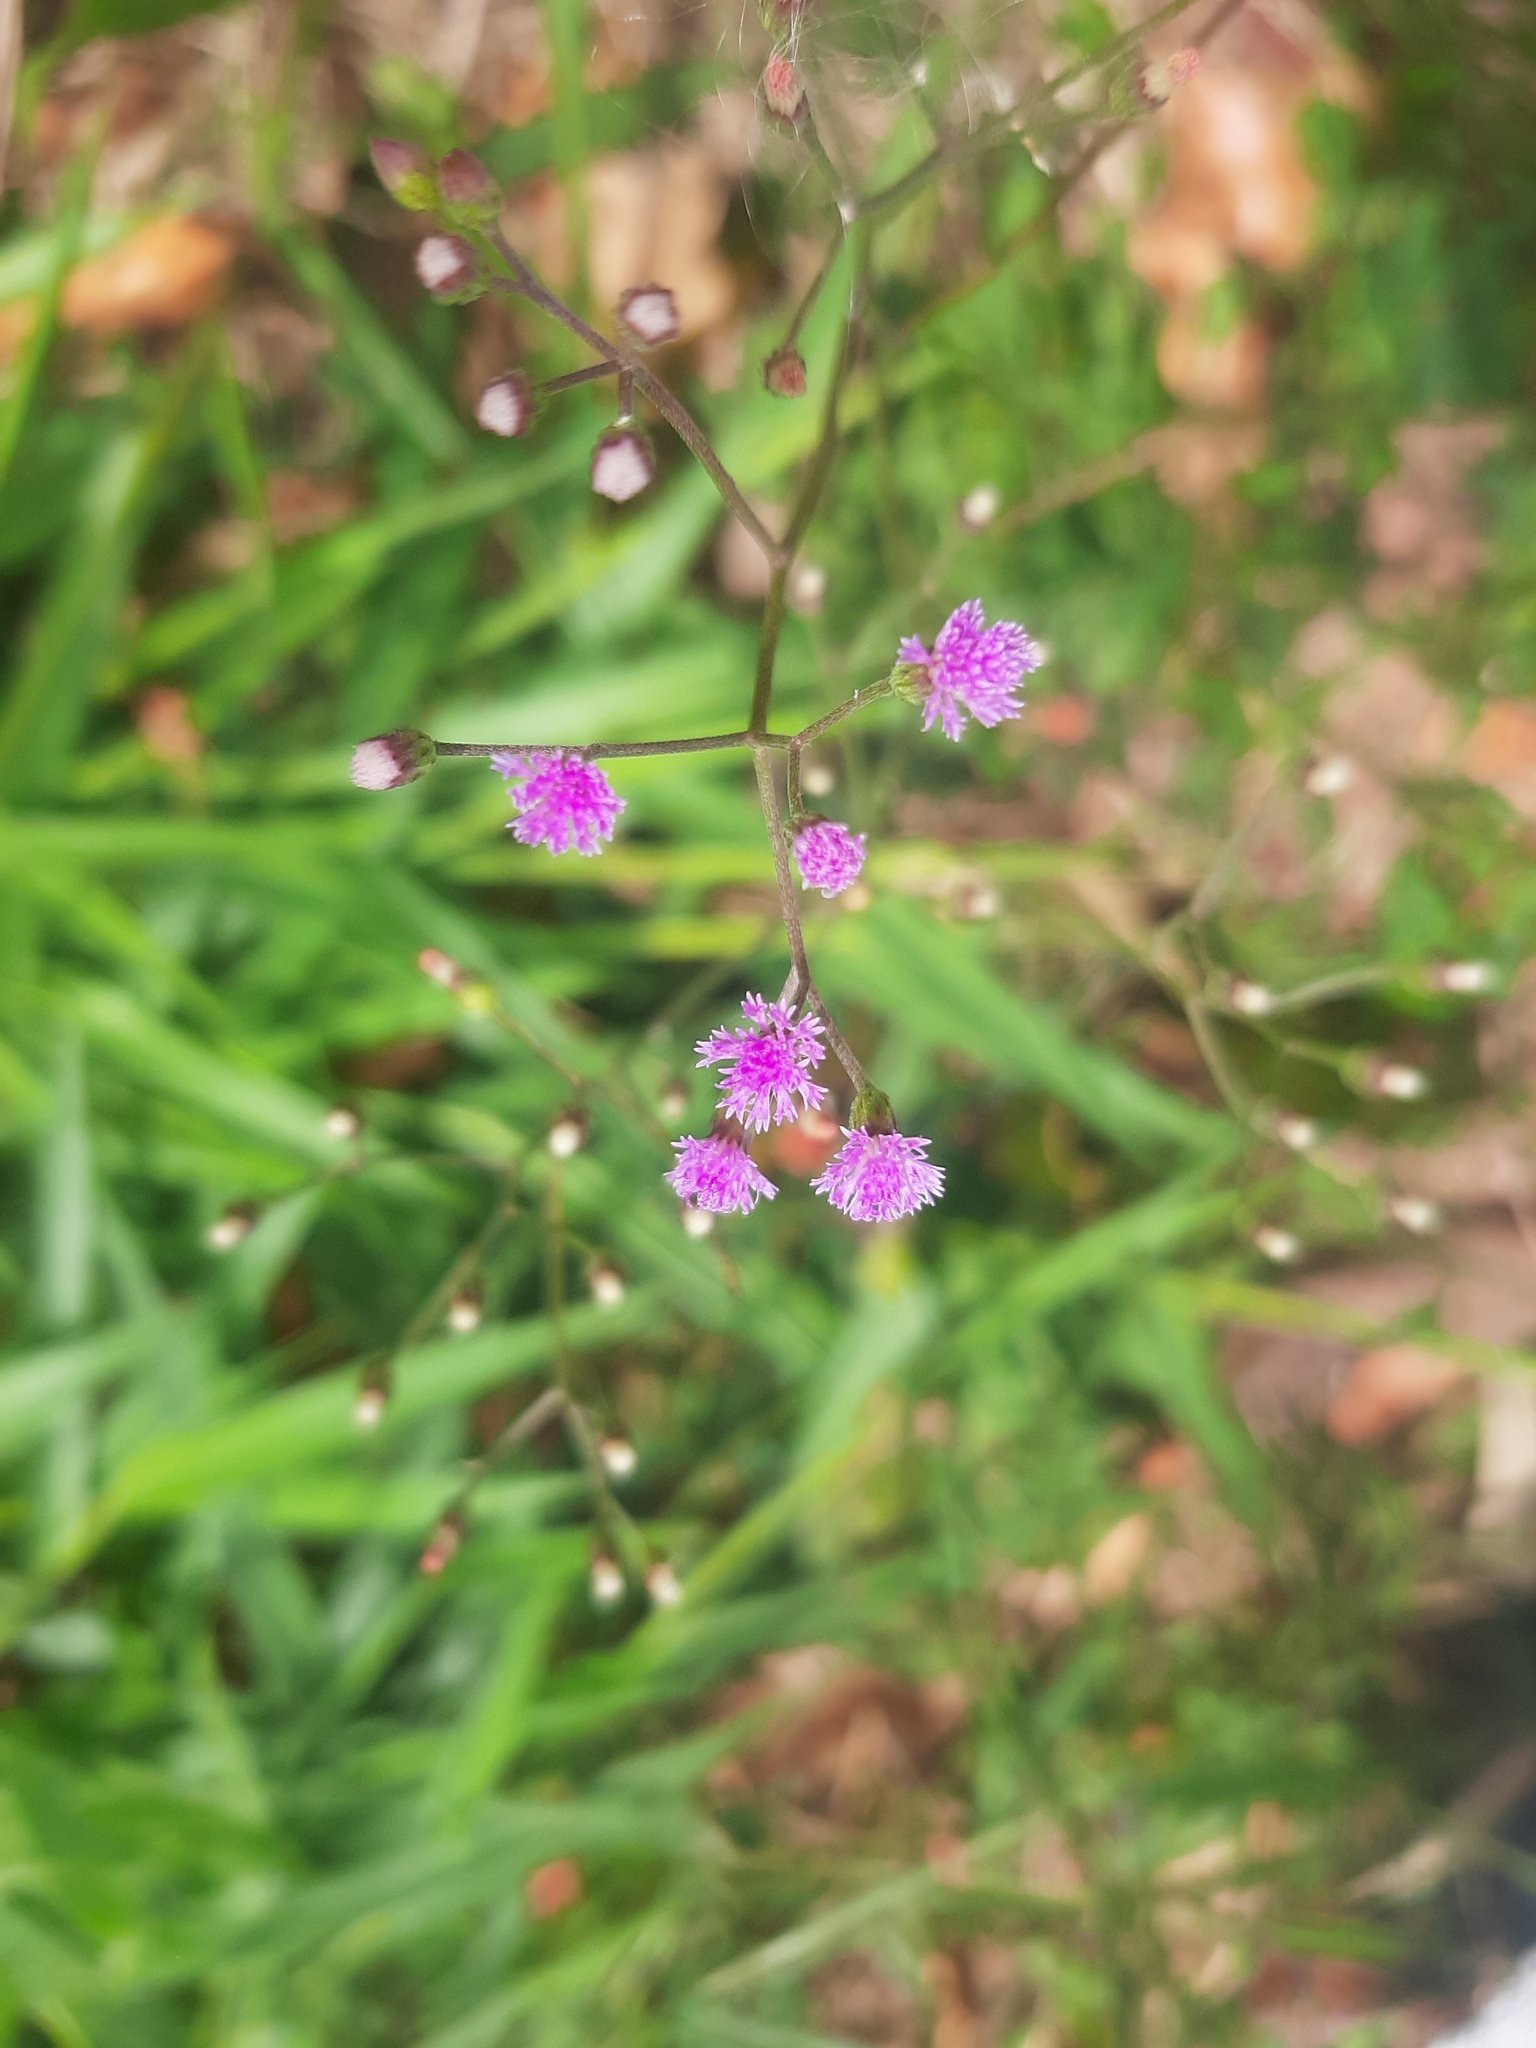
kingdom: Plantae
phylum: Tracheophyta
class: Magnoliopsida
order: Asterales
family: Asteraceae
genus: Cyanthillium
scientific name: Cyanthillium cinereum
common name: Little ironweed
